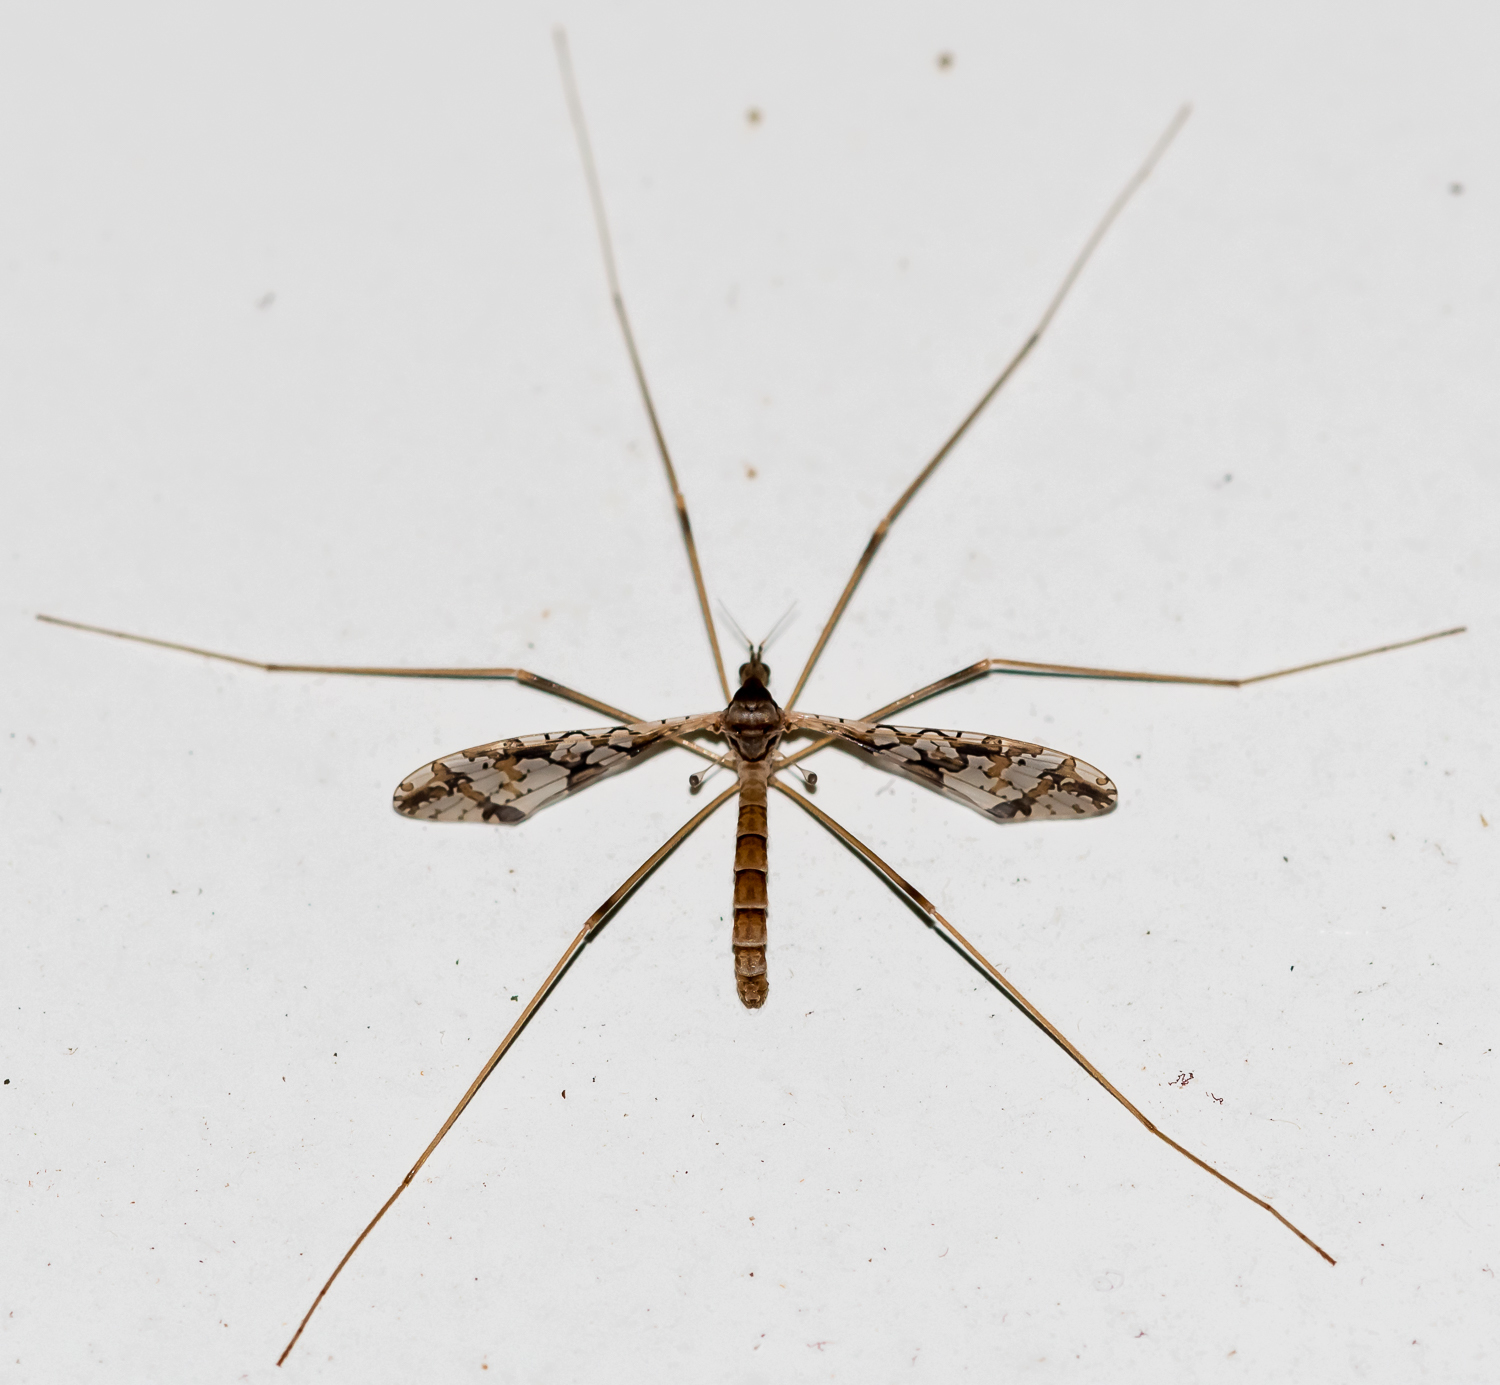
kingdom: Animalia
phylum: Arthropoda
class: Insecta
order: Diptera
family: Limoniidae
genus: Epiphragma
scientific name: Epiphragma solatrix
